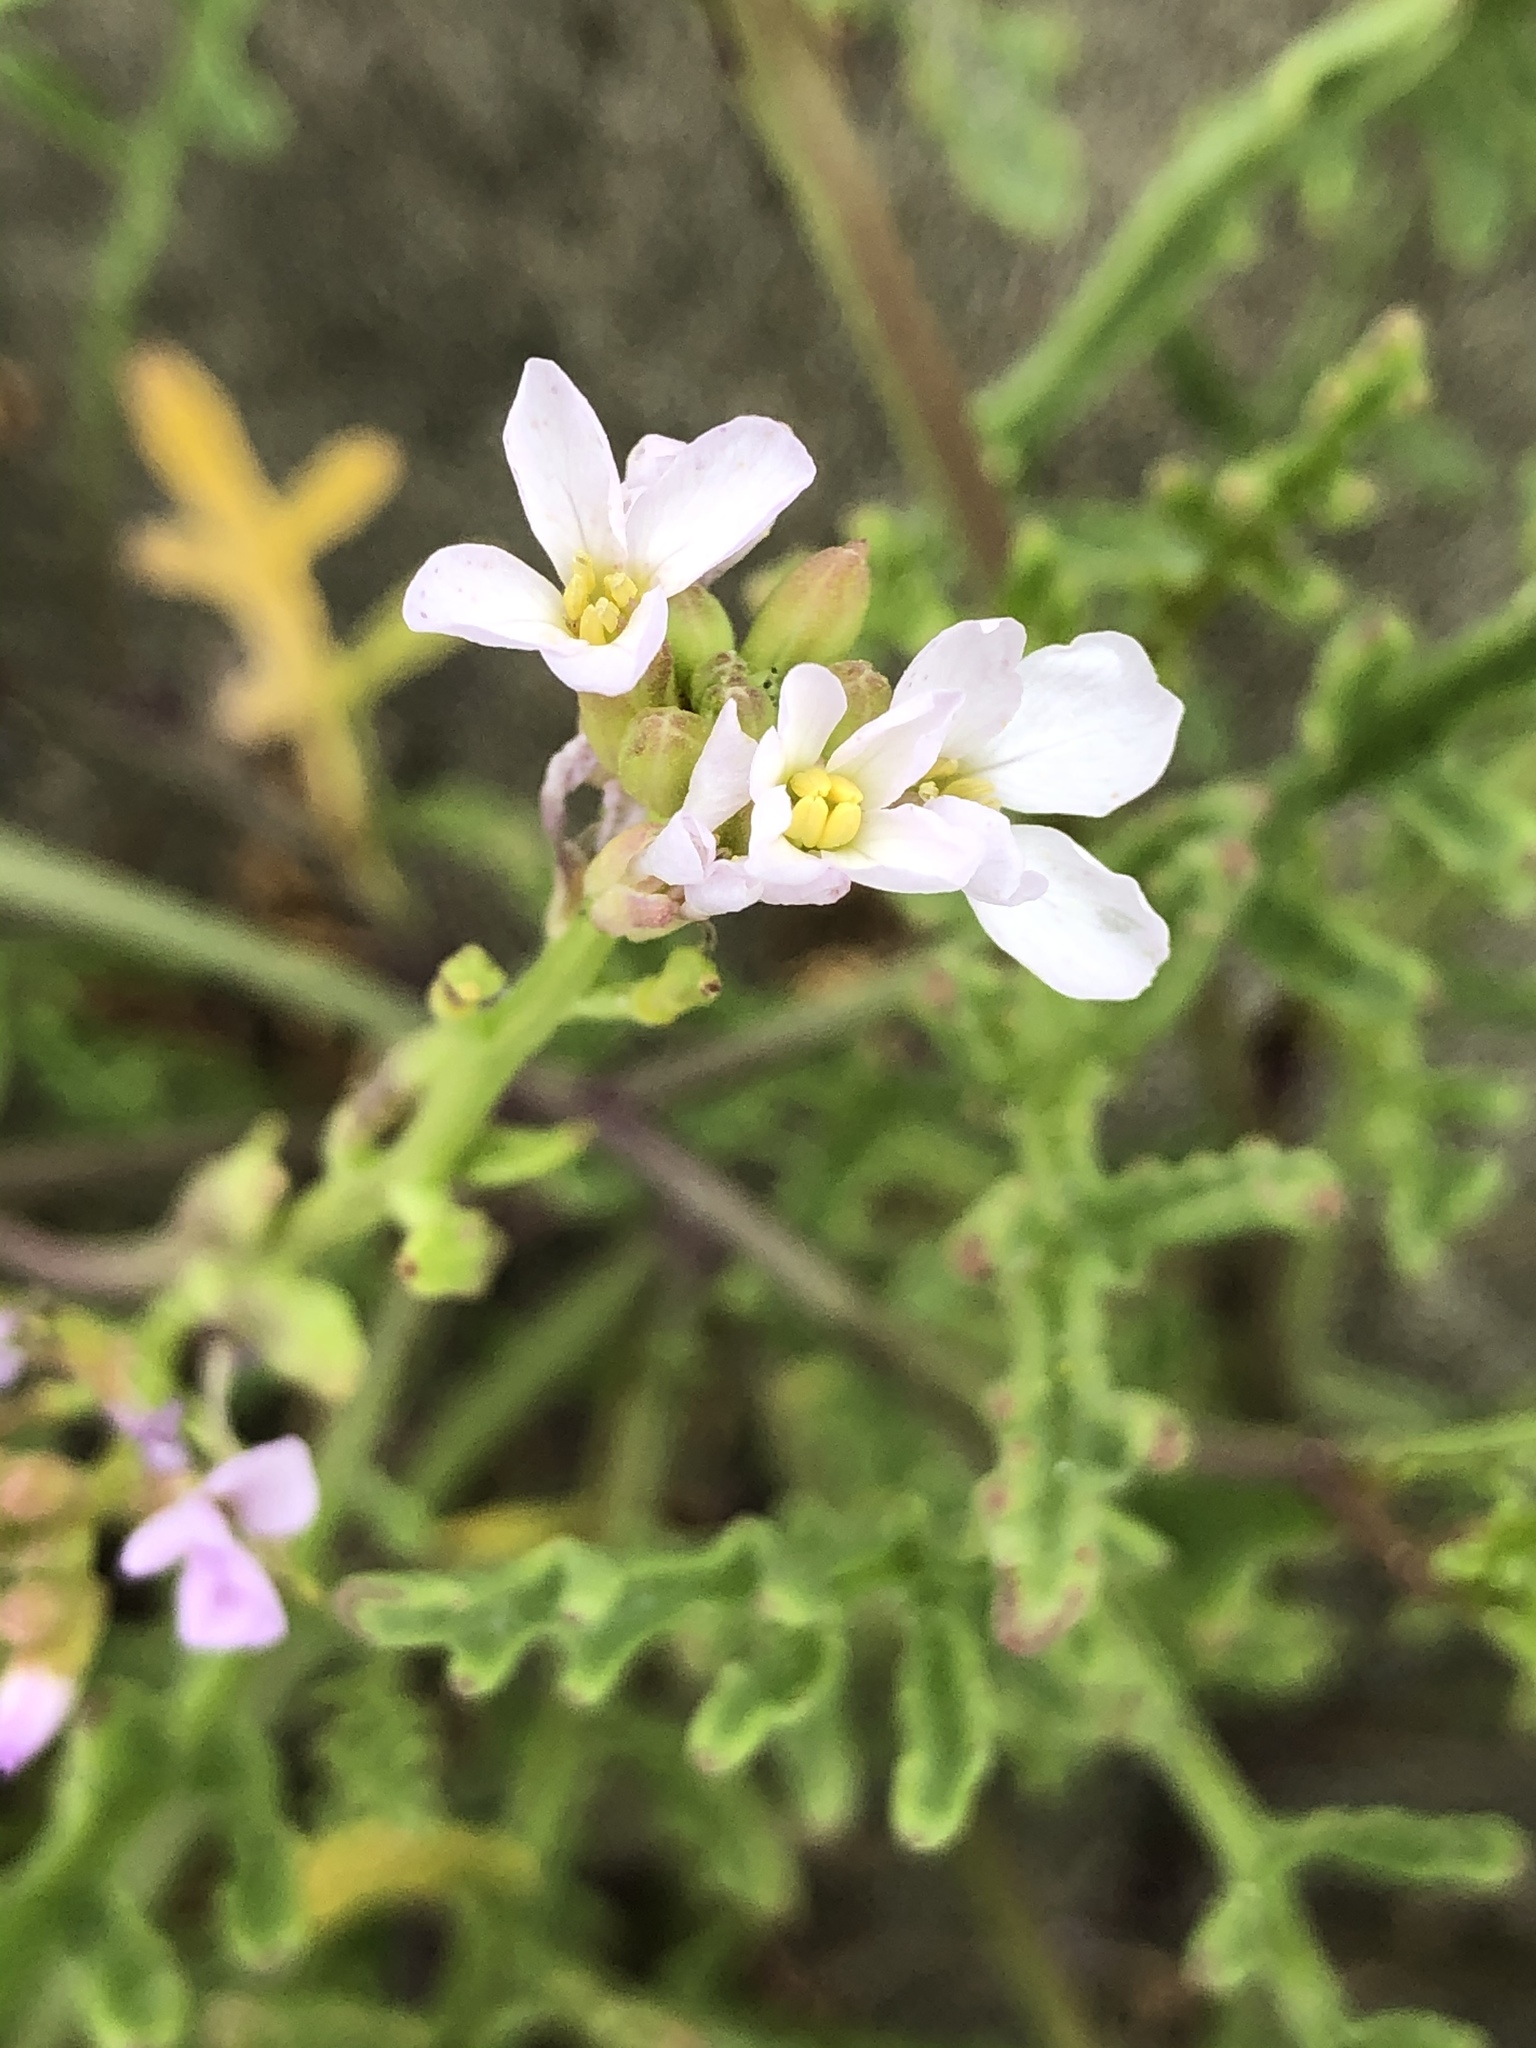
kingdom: Plantae
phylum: Tracheophyta
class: Magnoliopsida
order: Brassicales
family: Brassicaceae
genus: Cakile
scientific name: Cakile maritima
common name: Sea rocket
